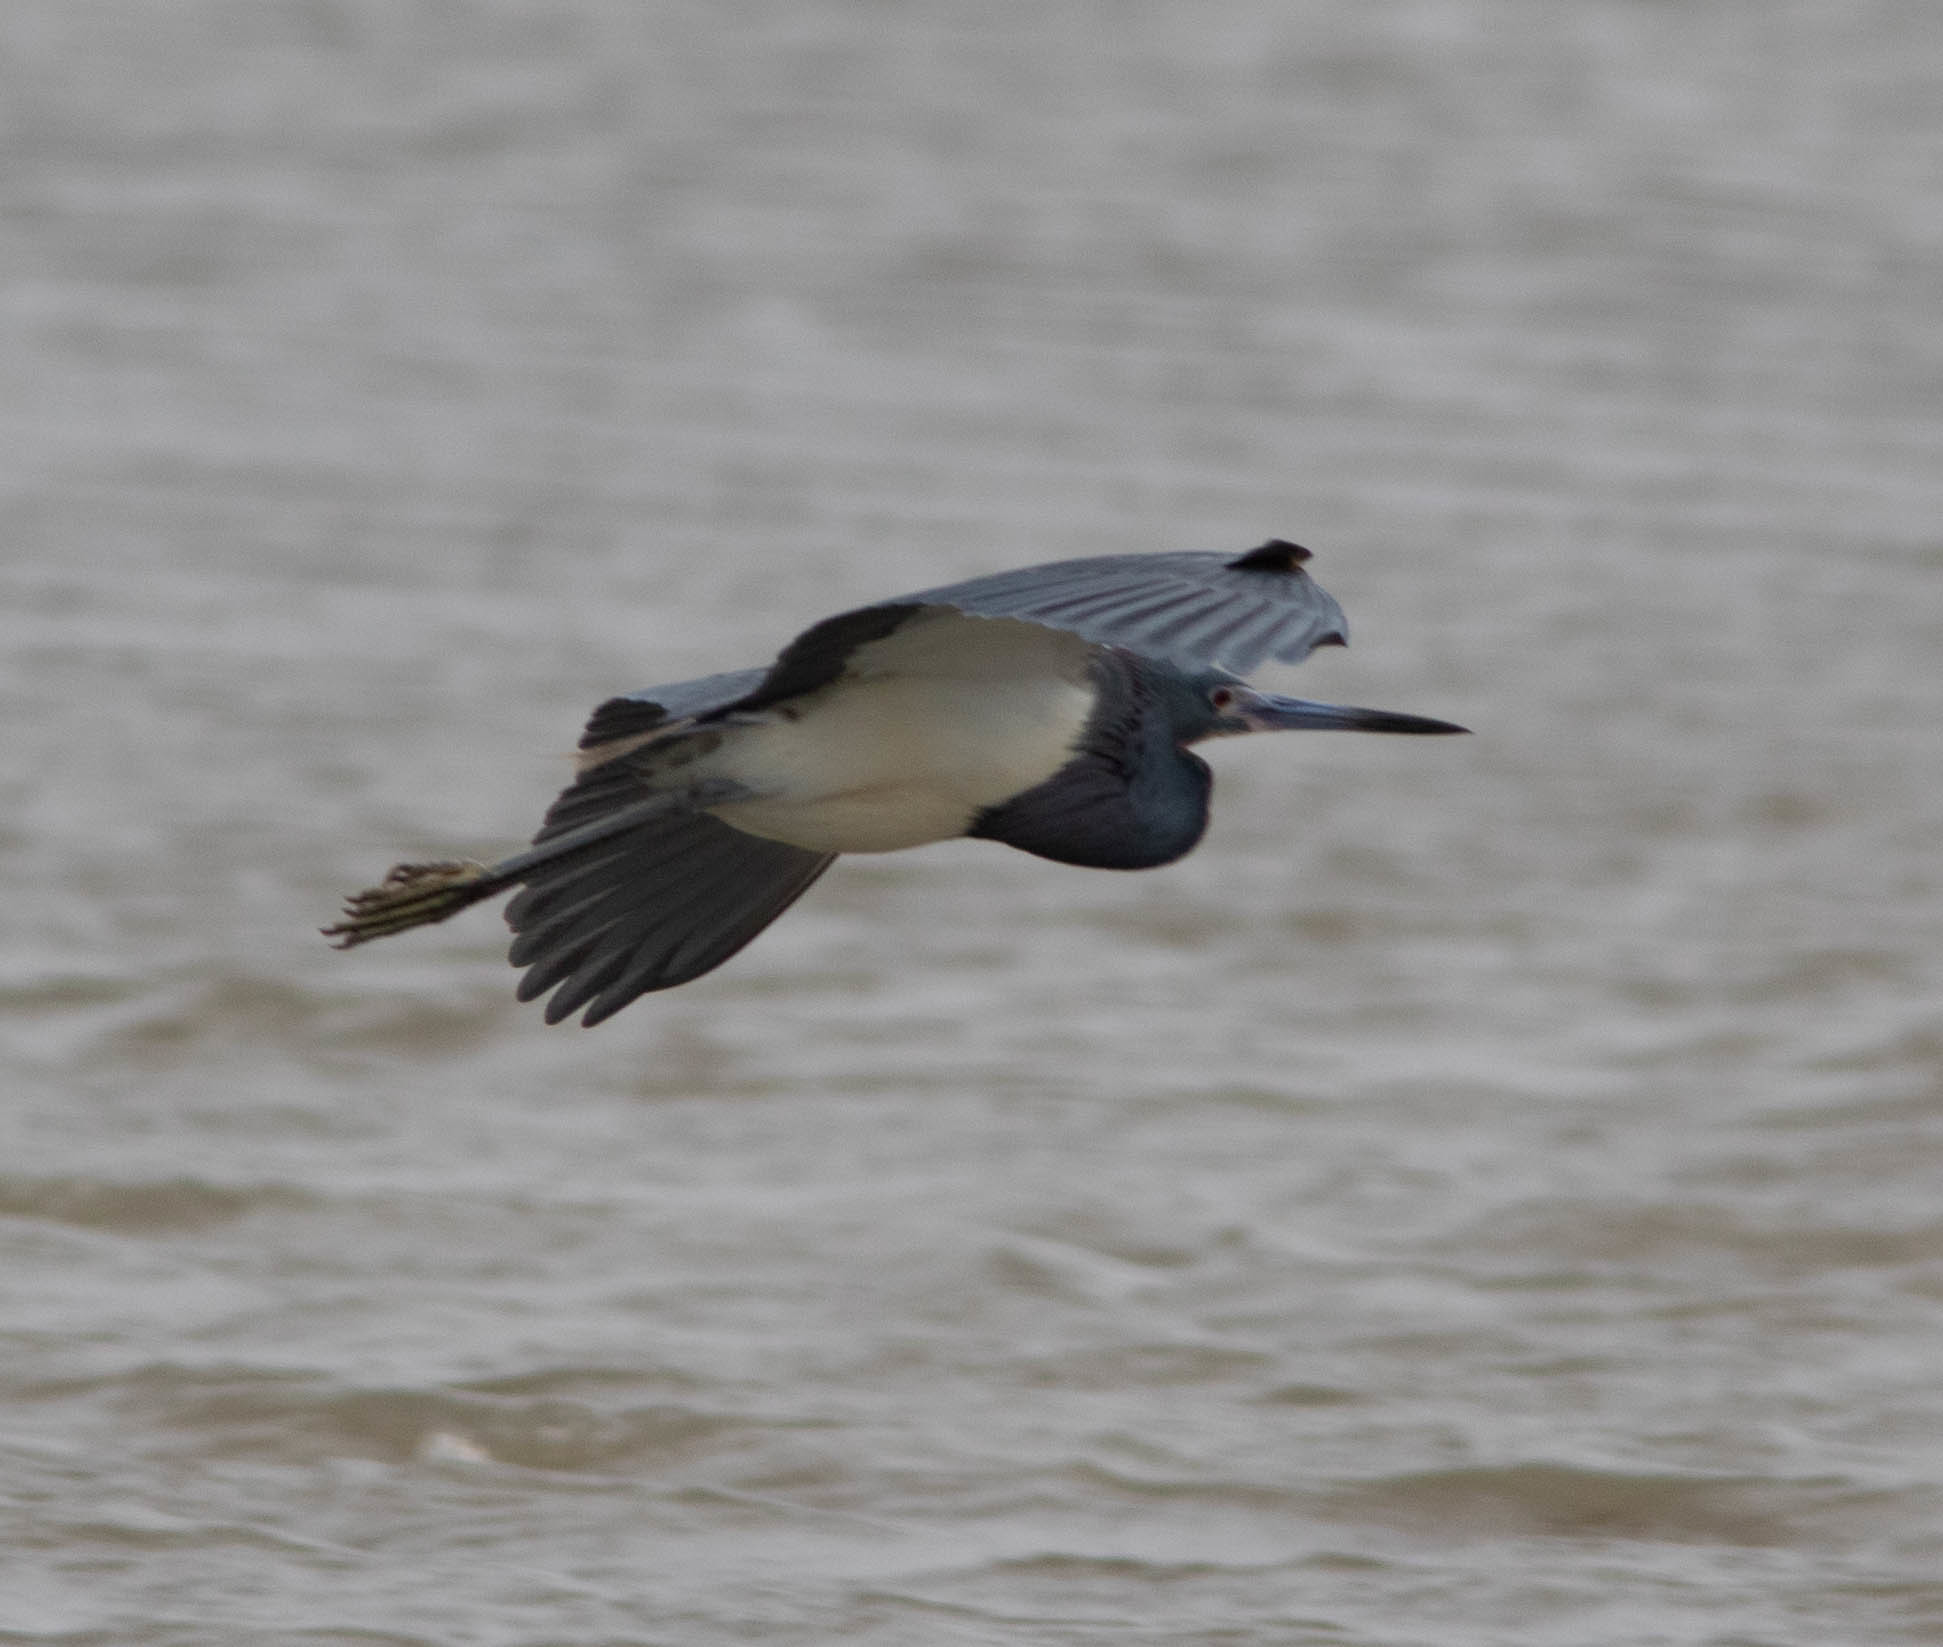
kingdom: Animalia
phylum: Chordata
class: Aves
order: Pelecaniformes
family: Ardeidae
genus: Egretta
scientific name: Egretta tricolor
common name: Tricolored heron
